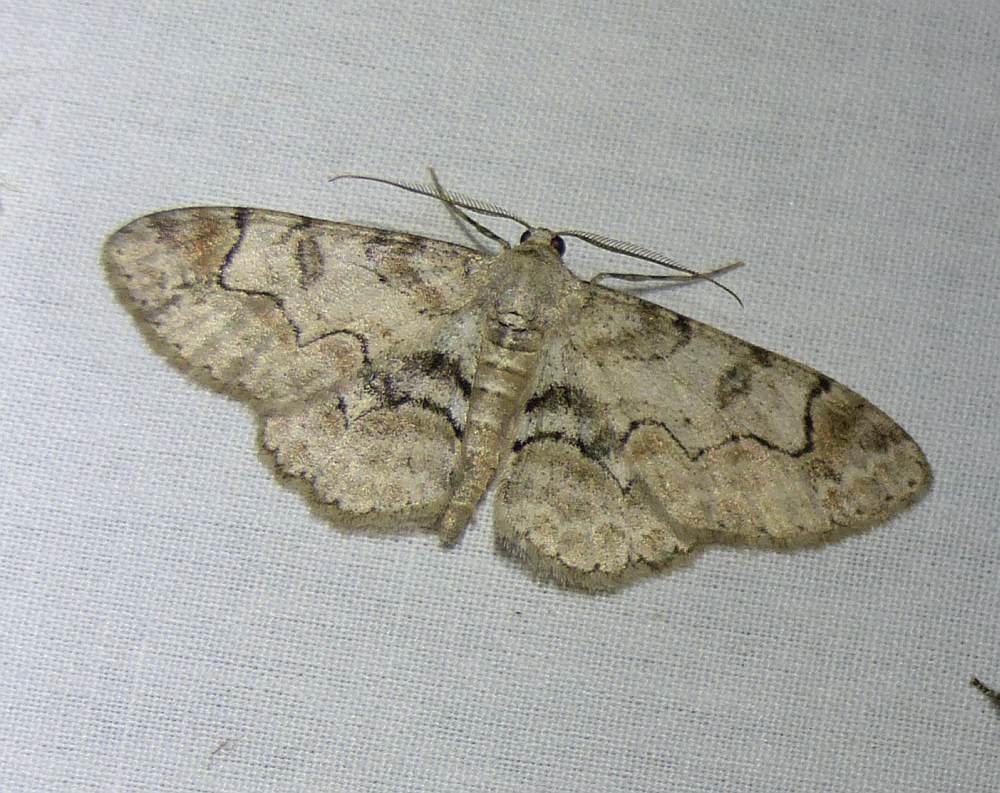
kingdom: Animalia
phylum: Arthropoda
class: Insecta
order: Lepidoptera
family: Geometridae
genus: Iridopsis
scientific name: Iridopsis larvaria
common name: Bent-line gray
